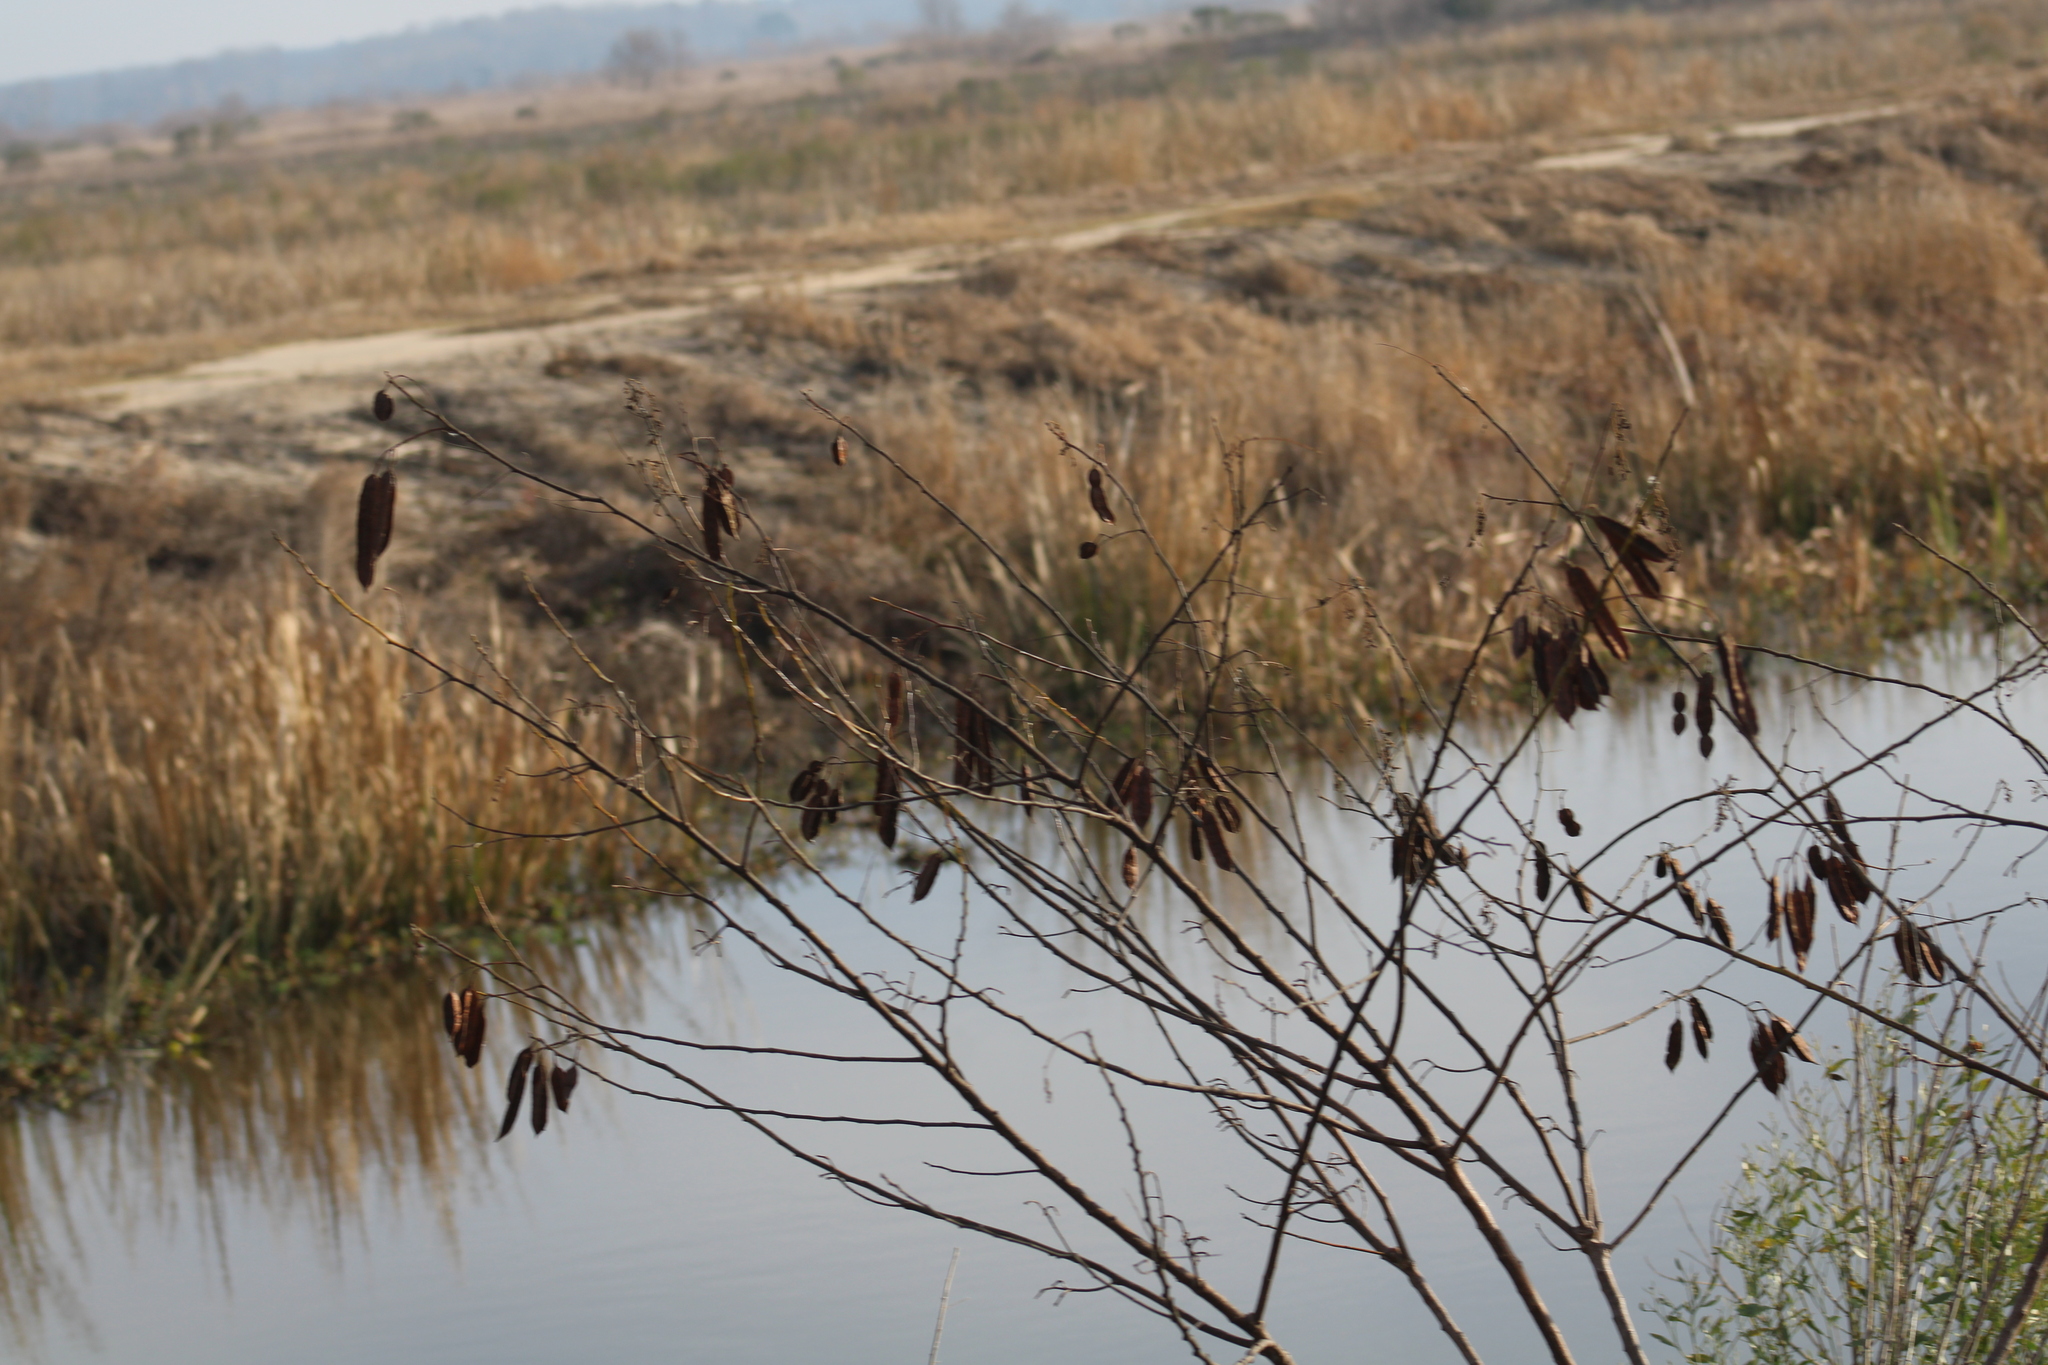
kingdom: Plantae
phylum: Tracheophyta
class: Magnoliopsida
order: Fabales
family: Fabaceae
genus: Sesbania
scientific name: Sesbania punicea
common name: Rattlebox
